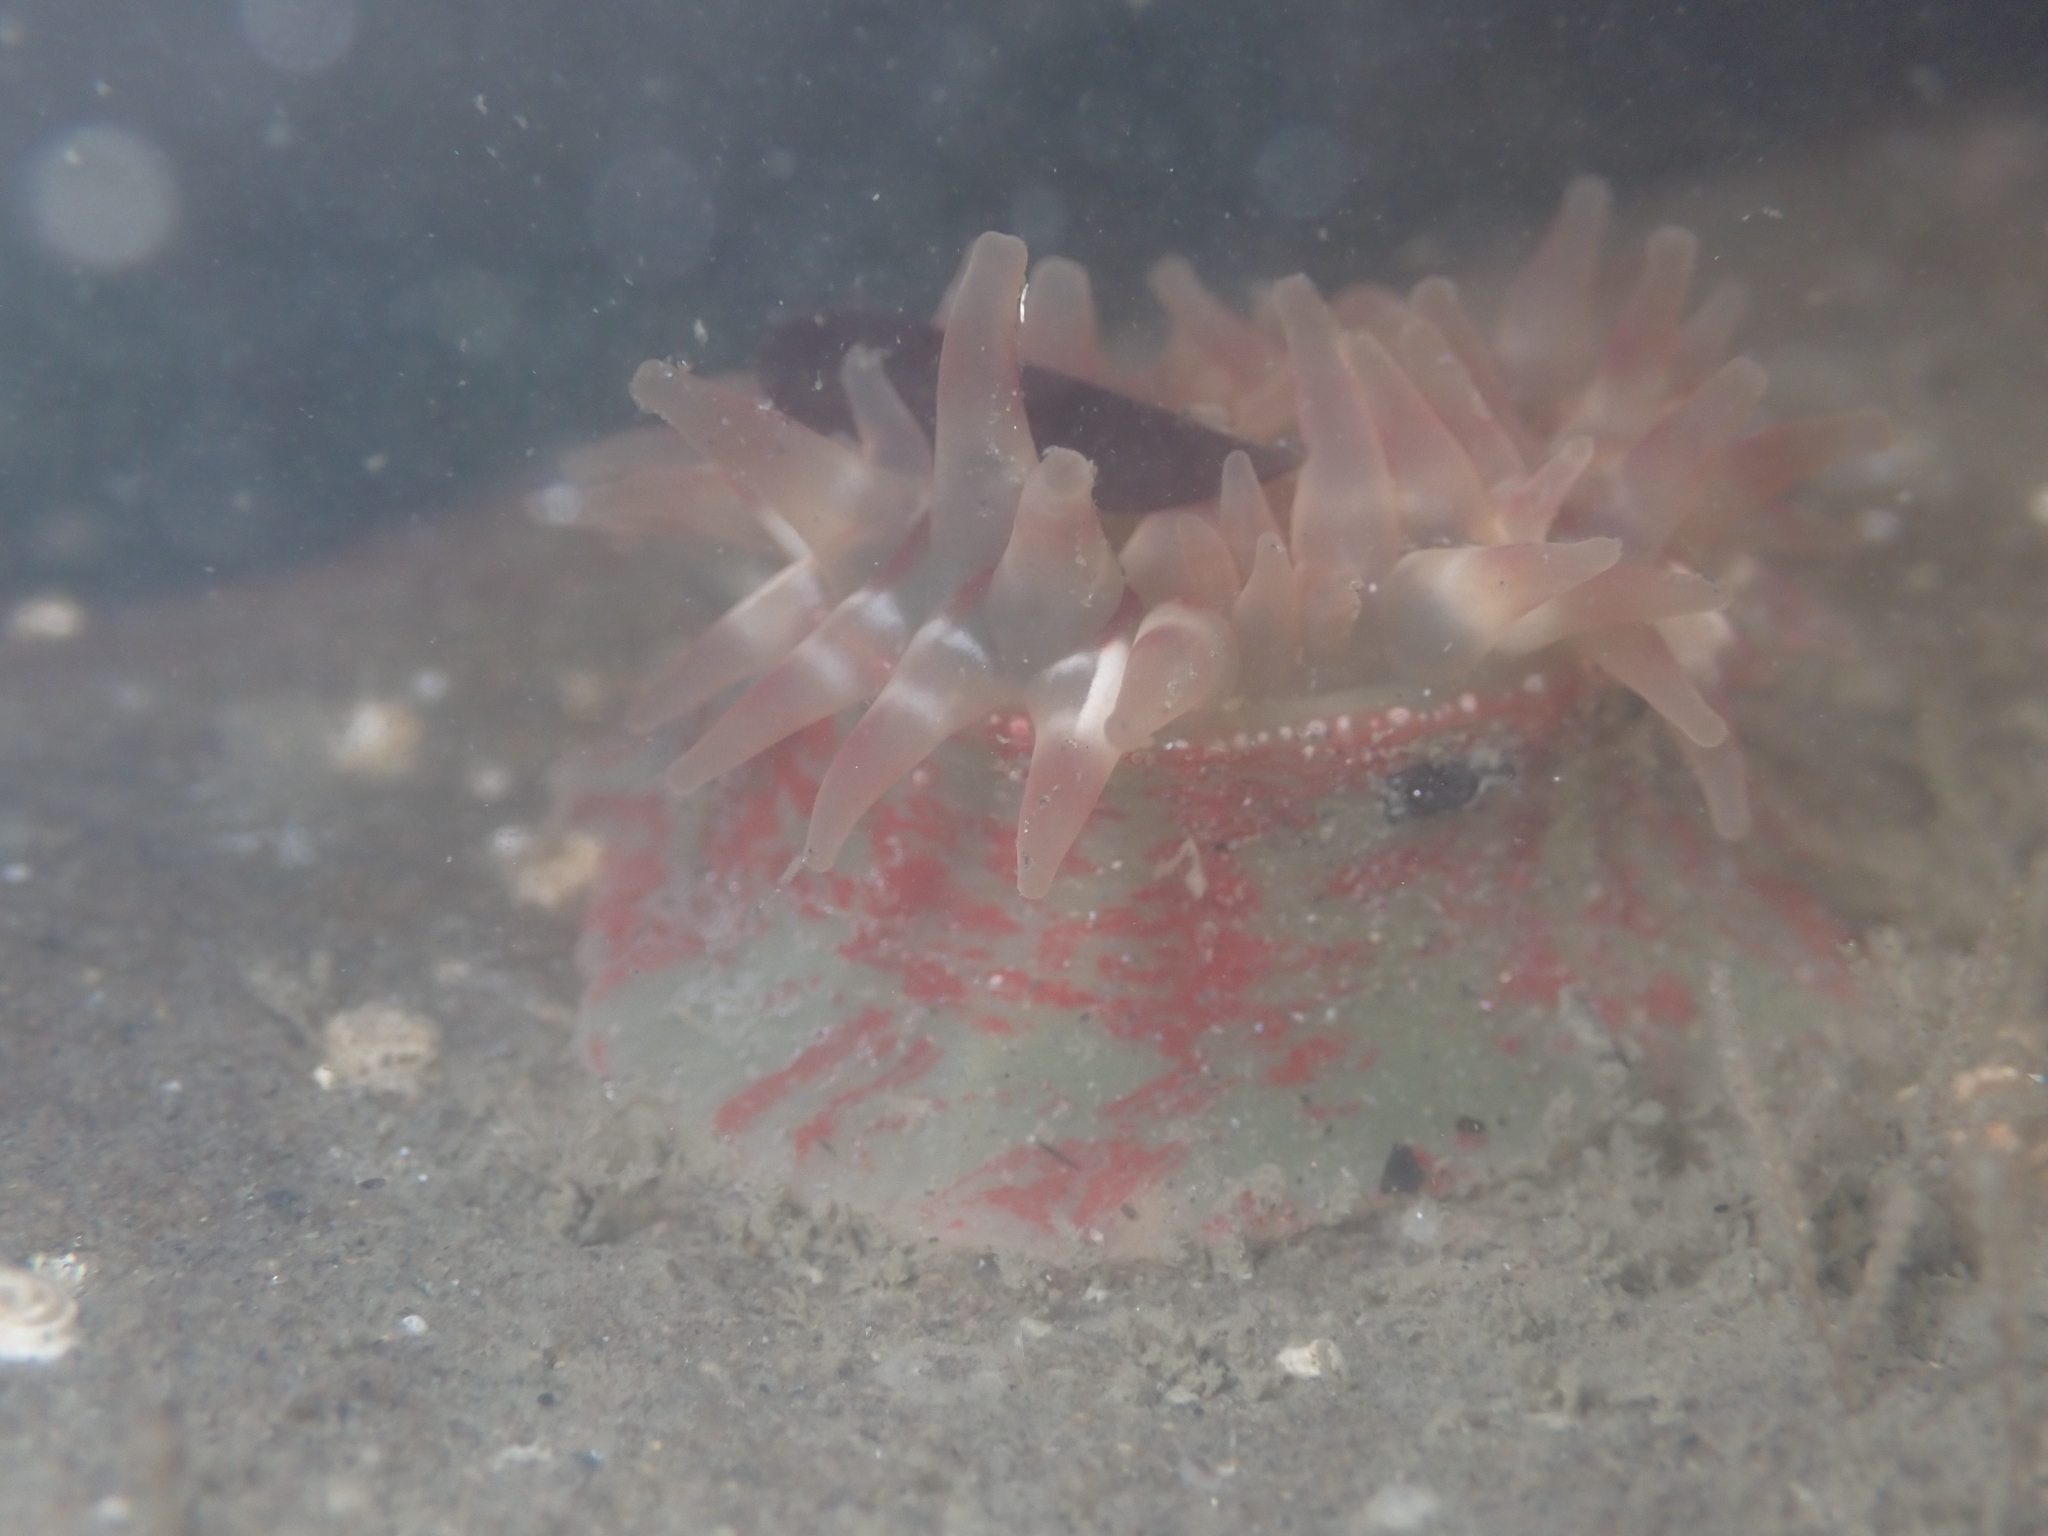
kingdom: Animalia
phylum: Cnidaria
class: Anthozoa
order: Actiniaria
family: Actiniidae
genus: Urticina
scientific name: Urticina grebelnyi
